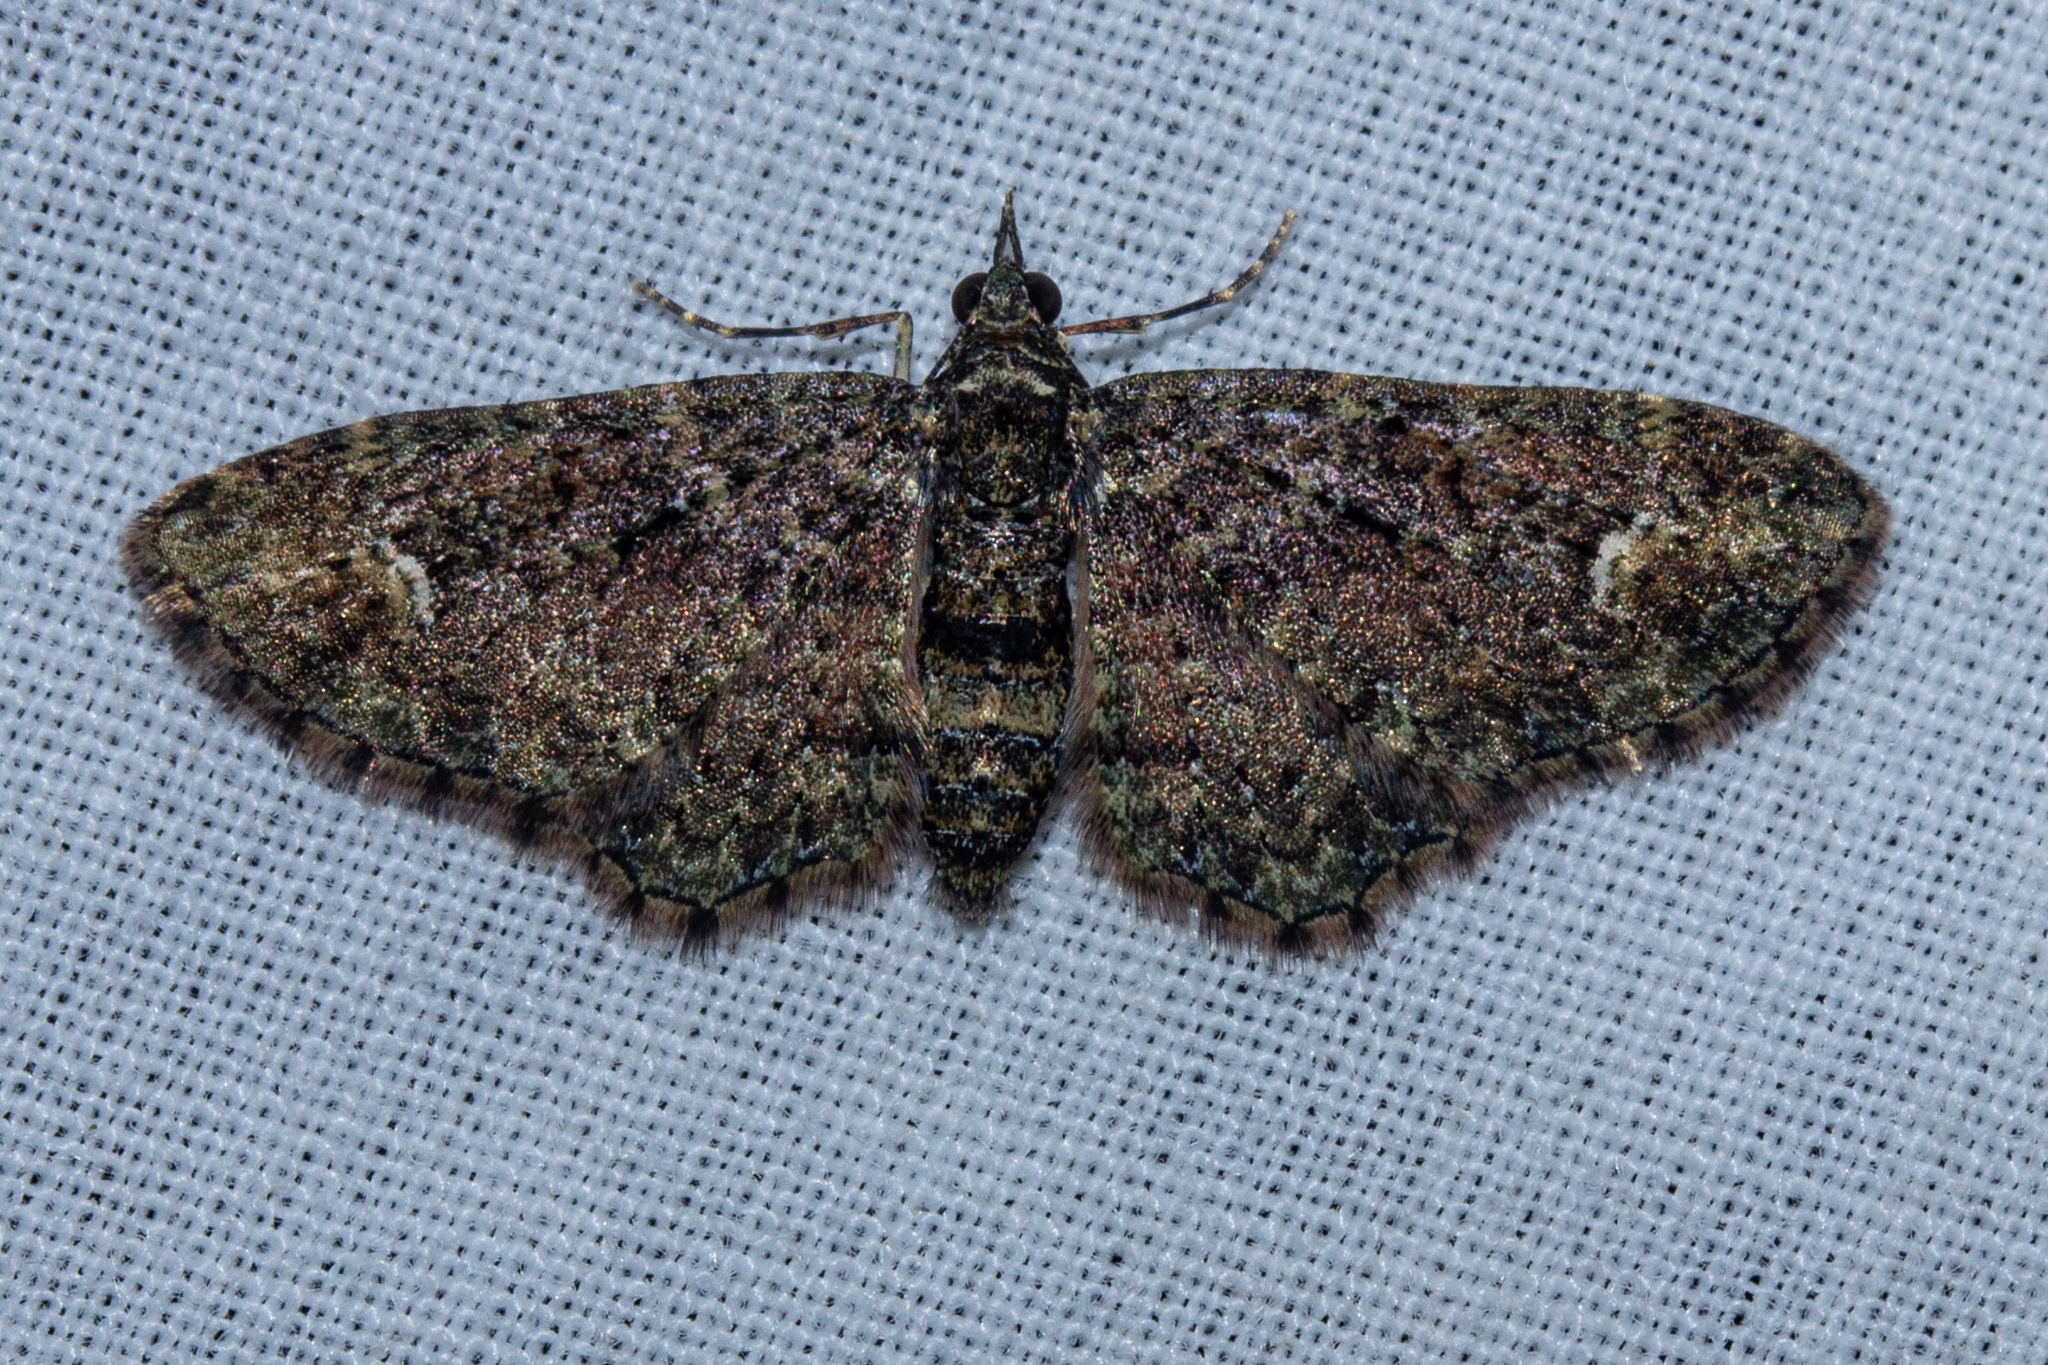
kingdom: Animalia
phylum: Arthropoda
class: Insecta
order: Lepidoptera
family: Geometridae
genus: Pasiphilodes
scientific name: Pasiphilodes testulata
